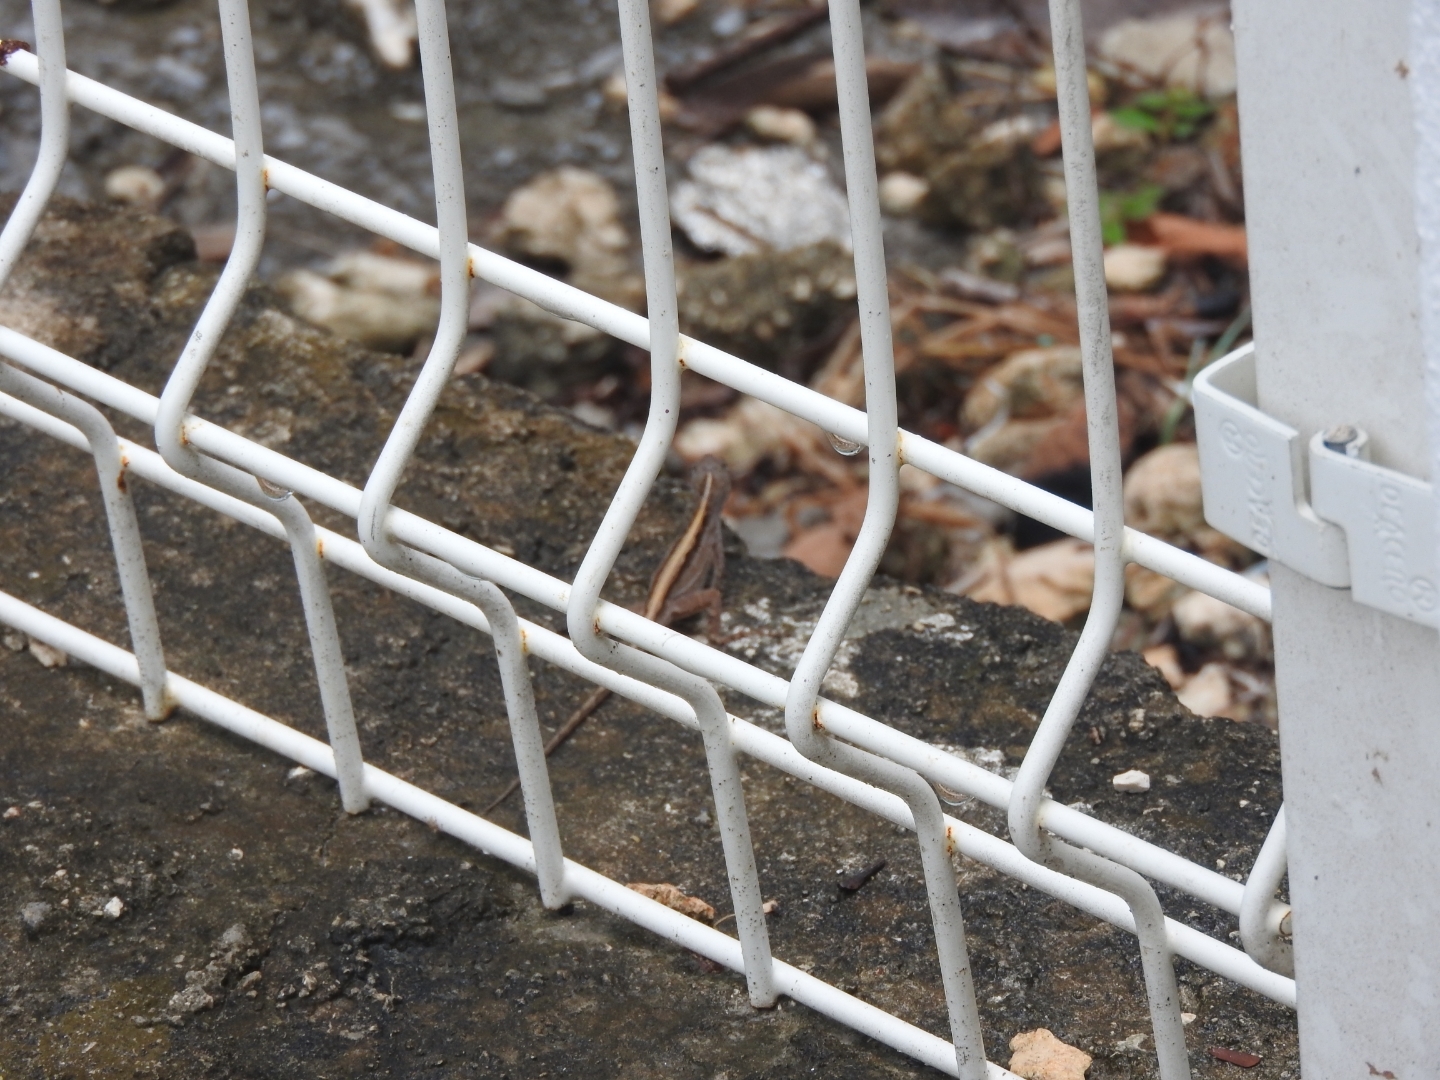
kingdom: Animalia
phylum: Chordata
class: Squamata
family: Dactyloidae
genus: Anolis
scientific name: Anolis sagrei
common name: Brown anole
